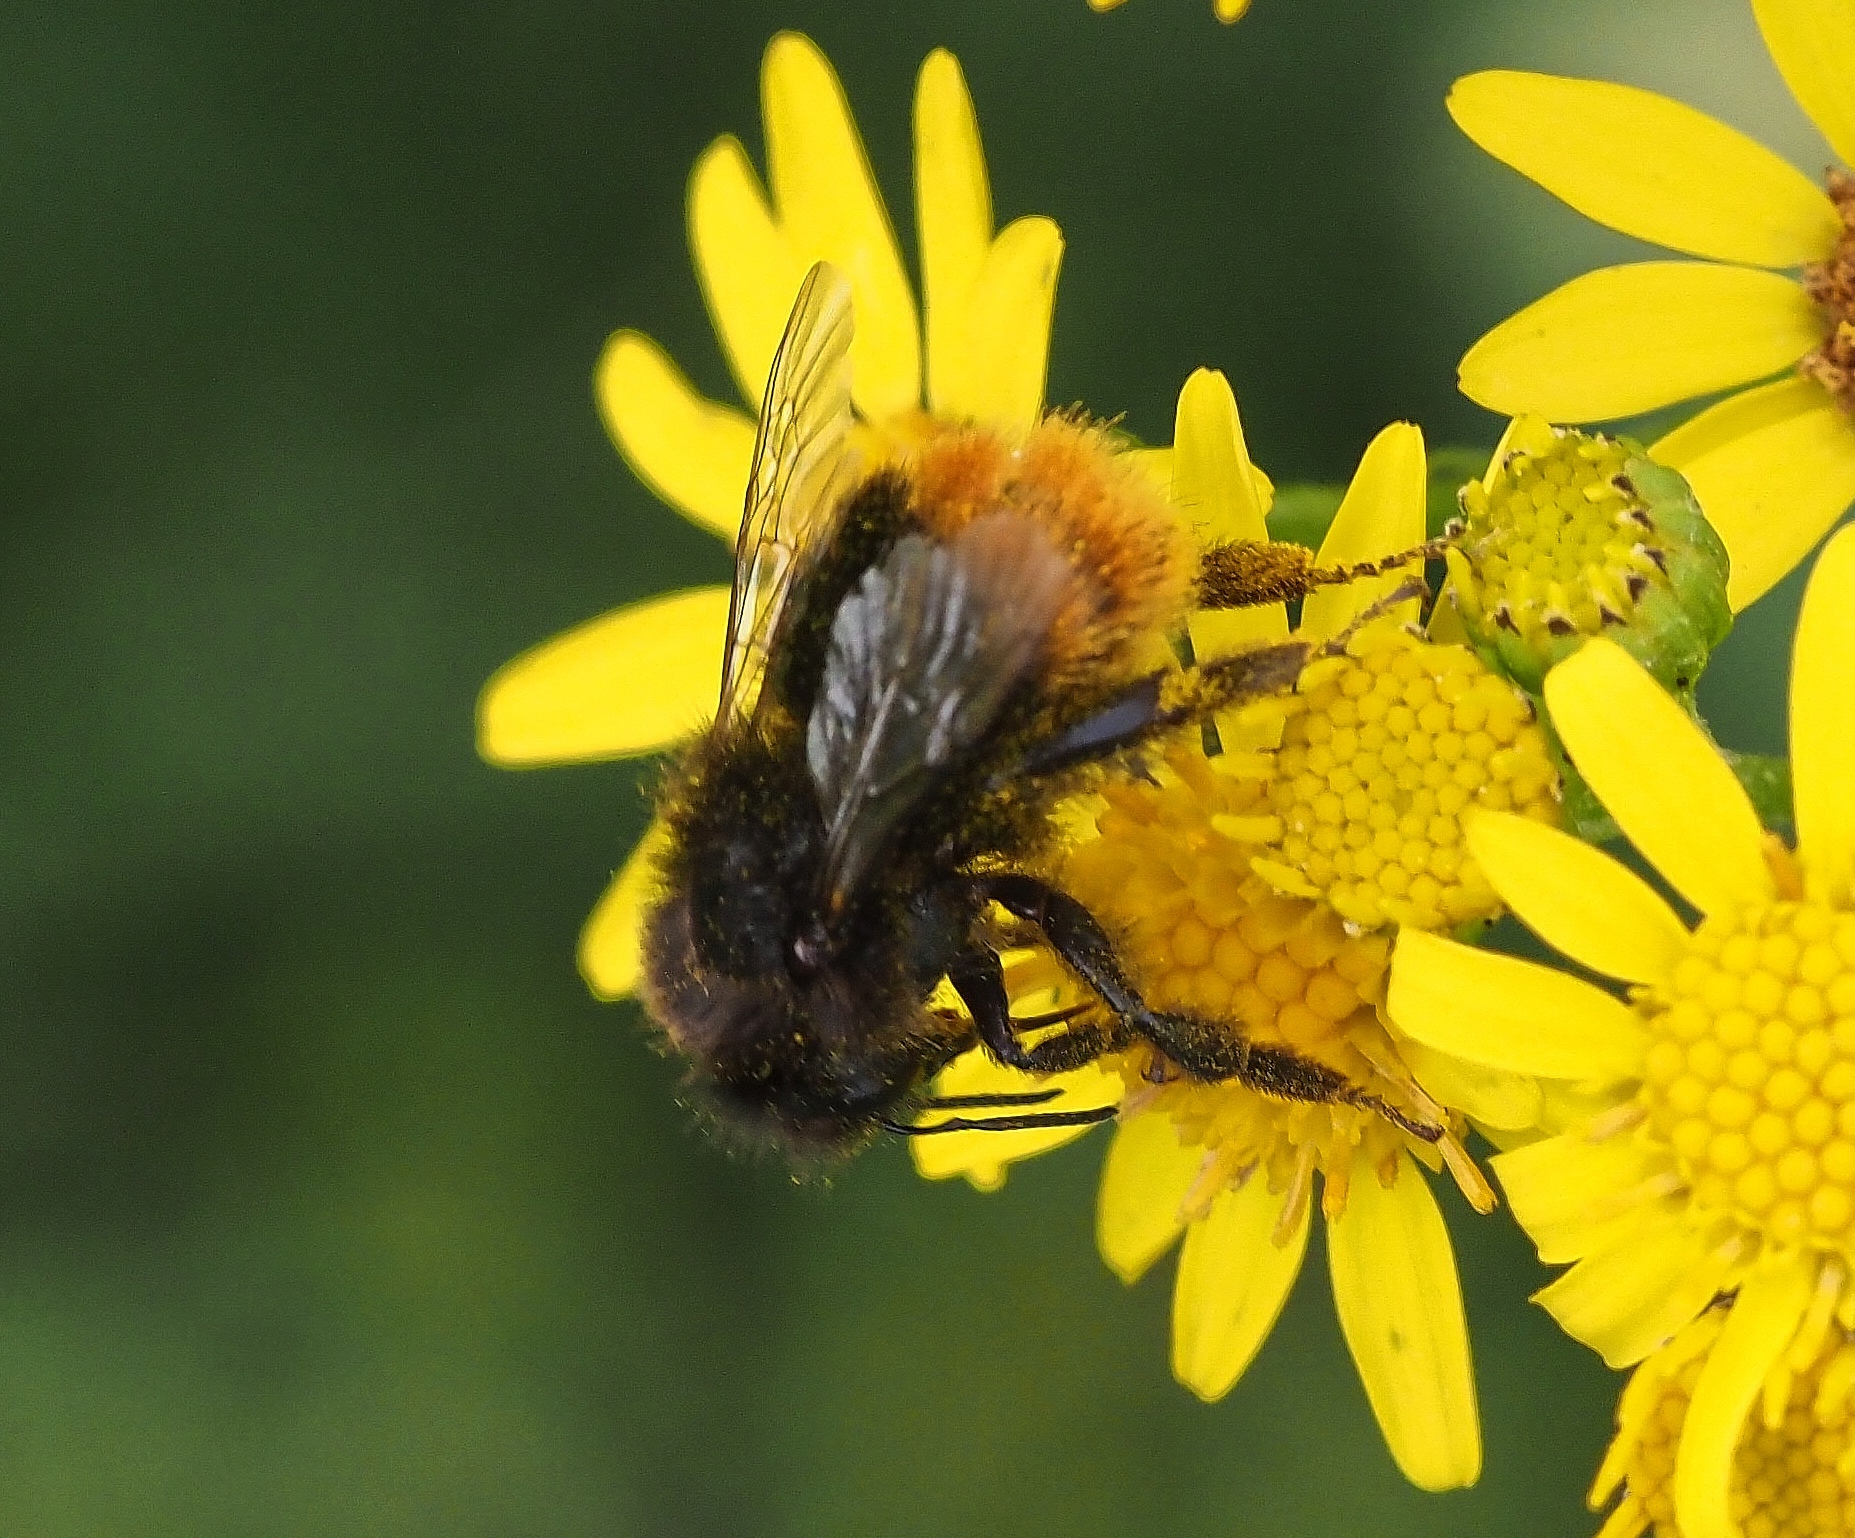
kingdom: Animalia
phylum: Arthropoda
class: Insecta
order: Hymenoptera
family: Apidae
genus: Bombus
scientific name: Bombus lapidarius
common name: Large red-tailed humble-bee
